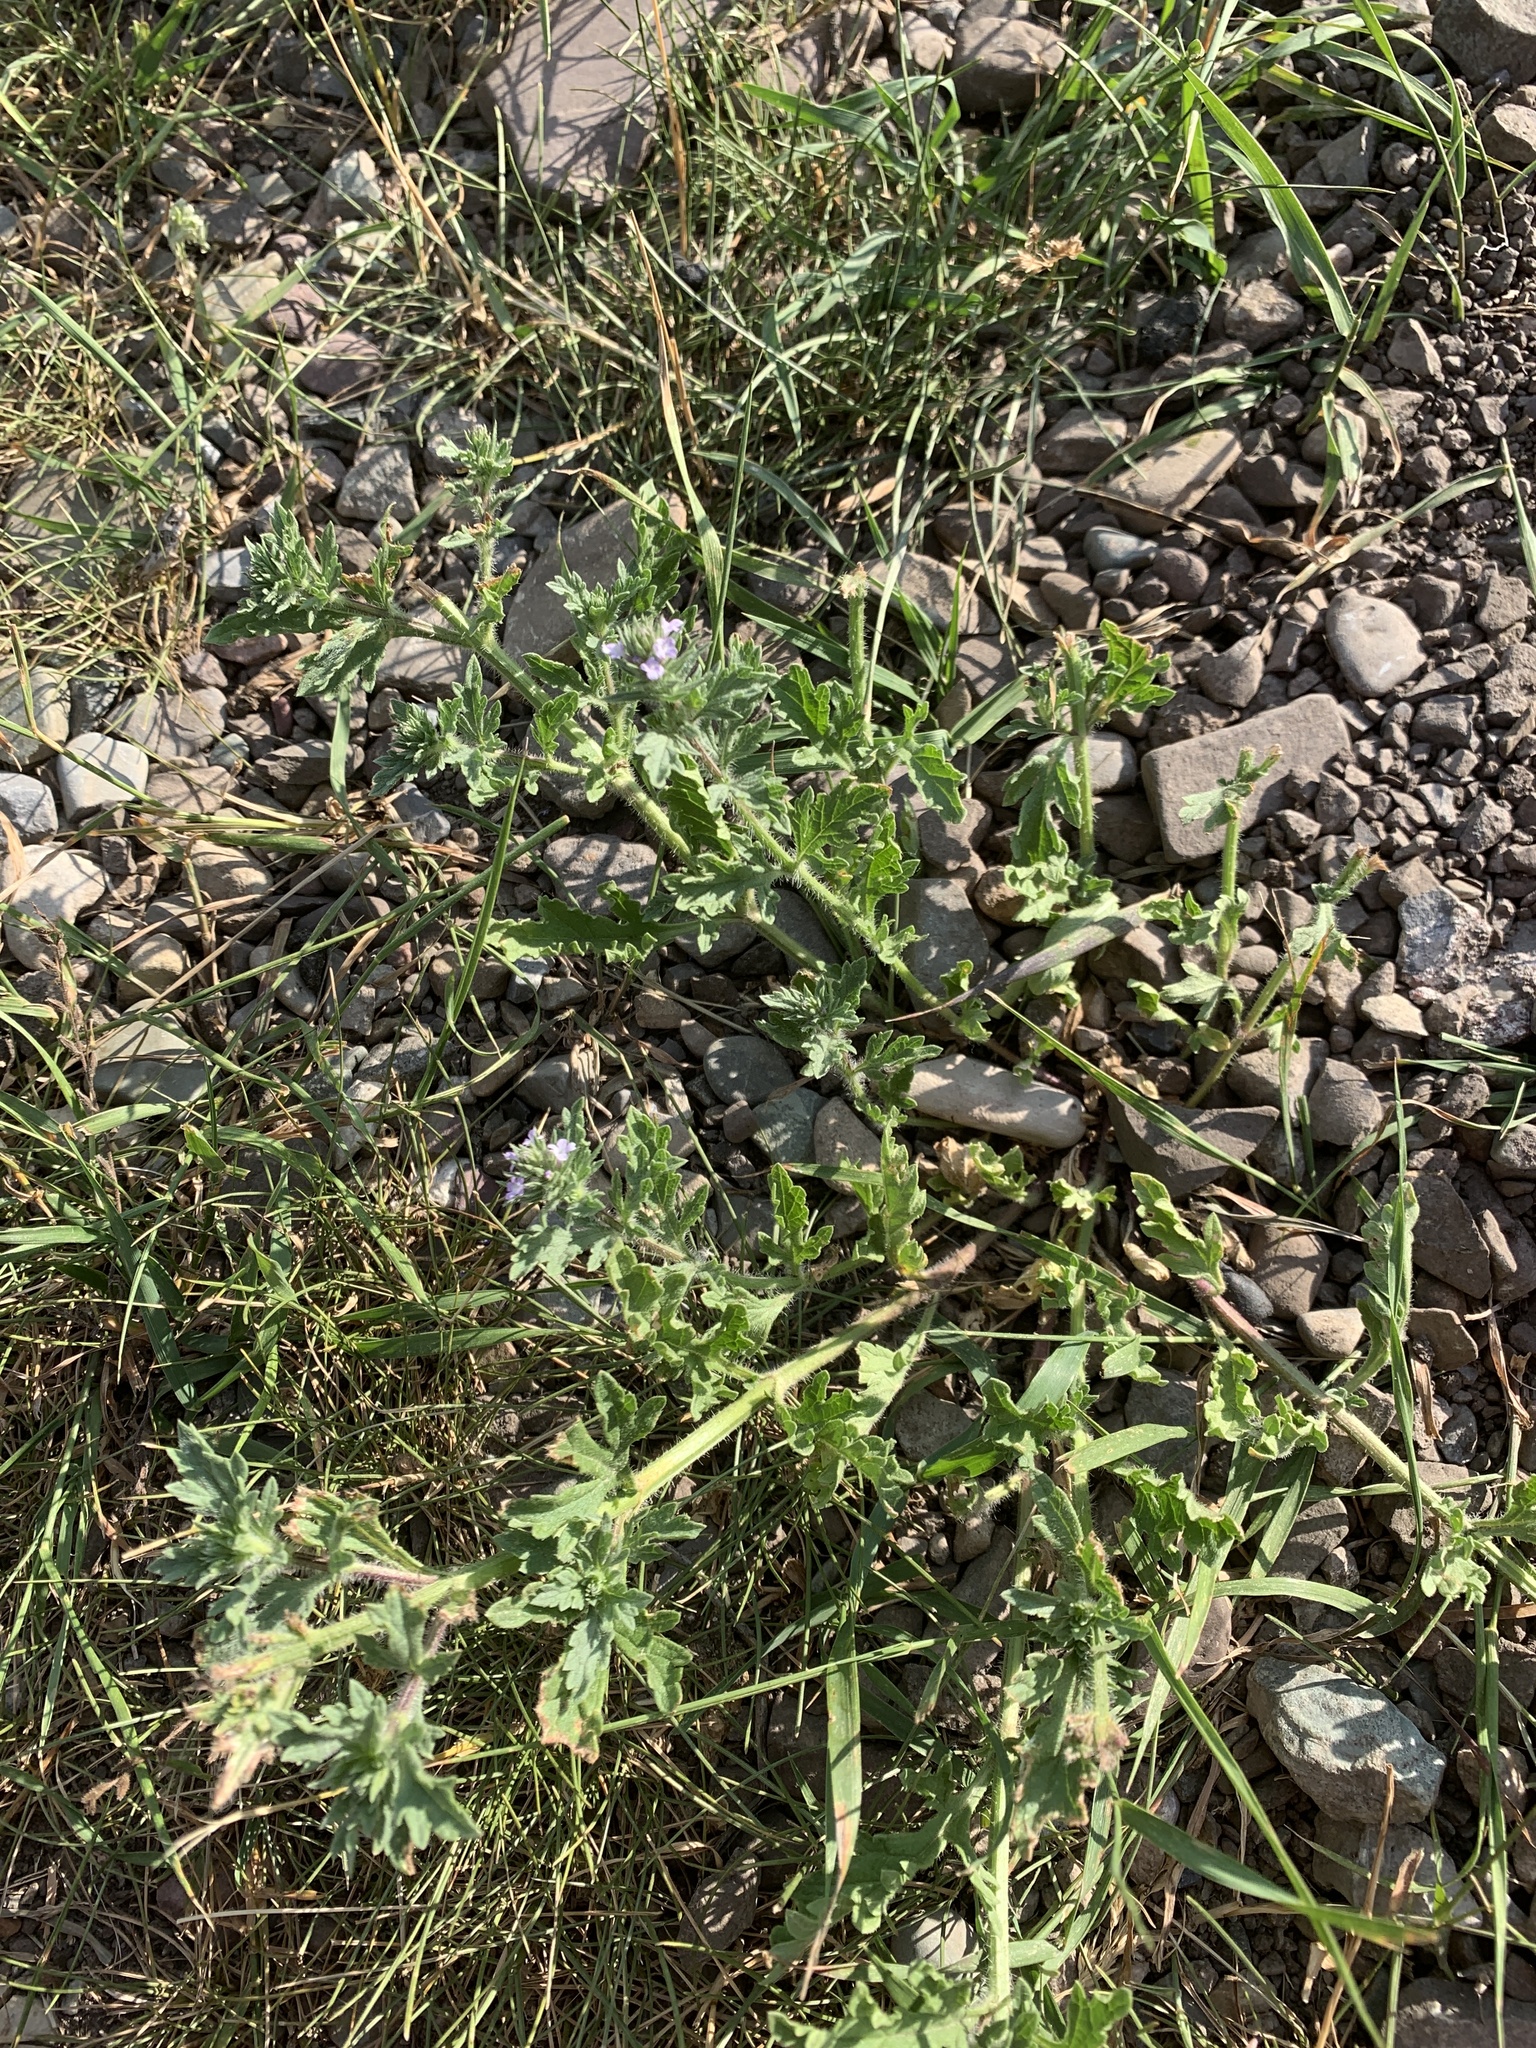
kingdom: Plantae
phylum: Tracheophyta
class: Magnoliopsida
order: Lamiales
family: Verbenaceae
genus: Verbena
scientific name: Verbena bracteata
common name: Bracted vervain
